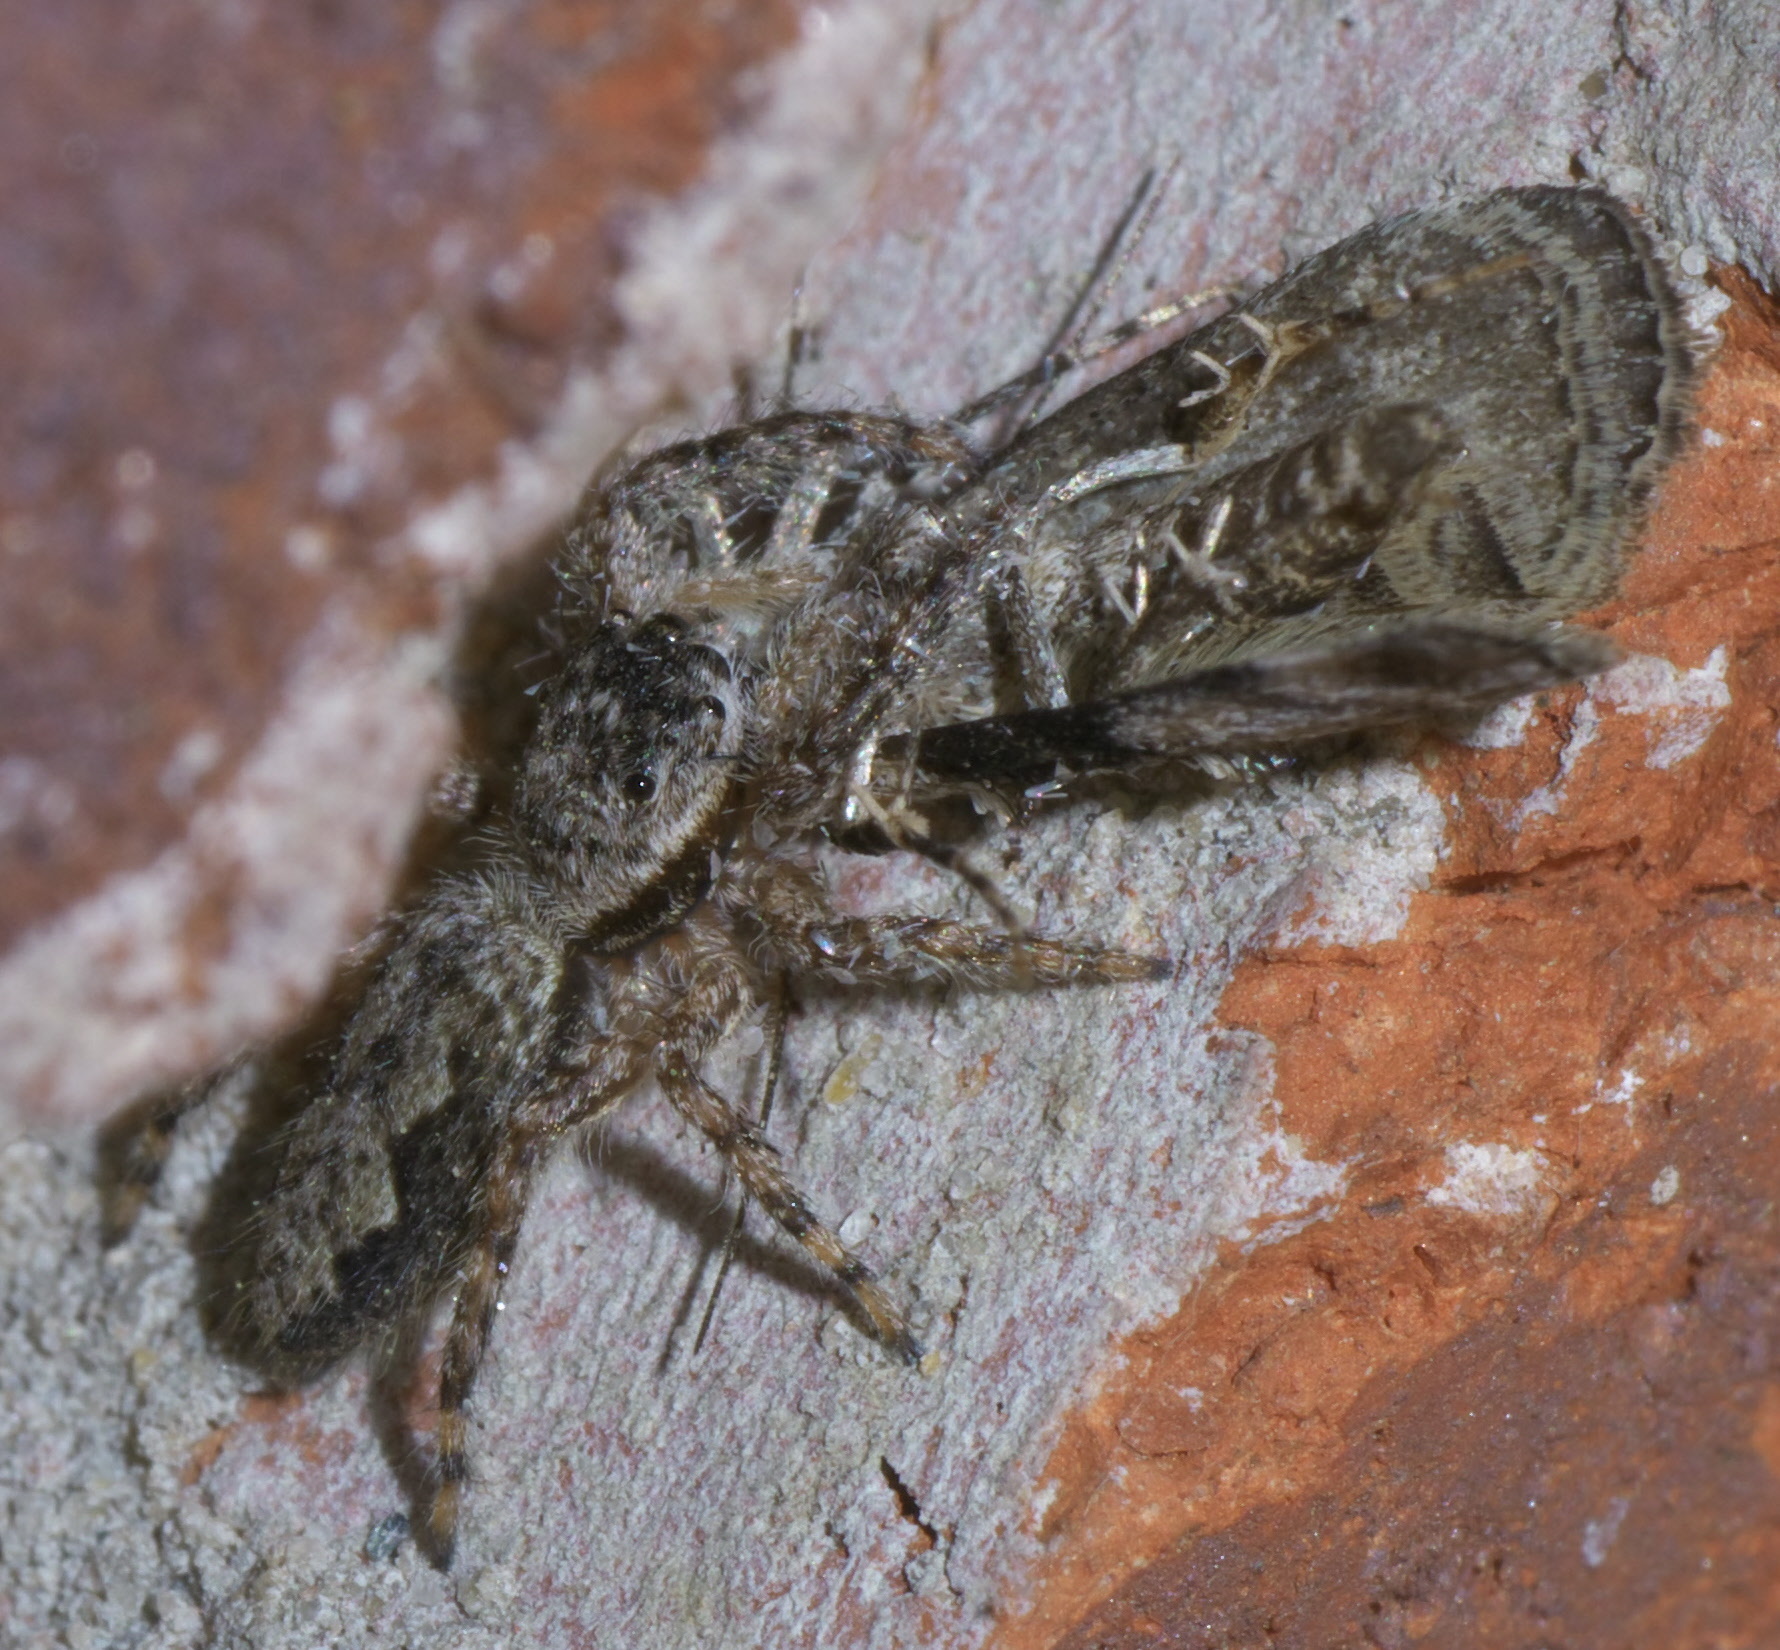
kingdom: Animalia
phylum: Arthropoda
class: Arachnida
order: Araneae
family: Salticidae
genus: Platycryptus
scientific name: Platycryptus undatus
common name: Tan jumping spider
